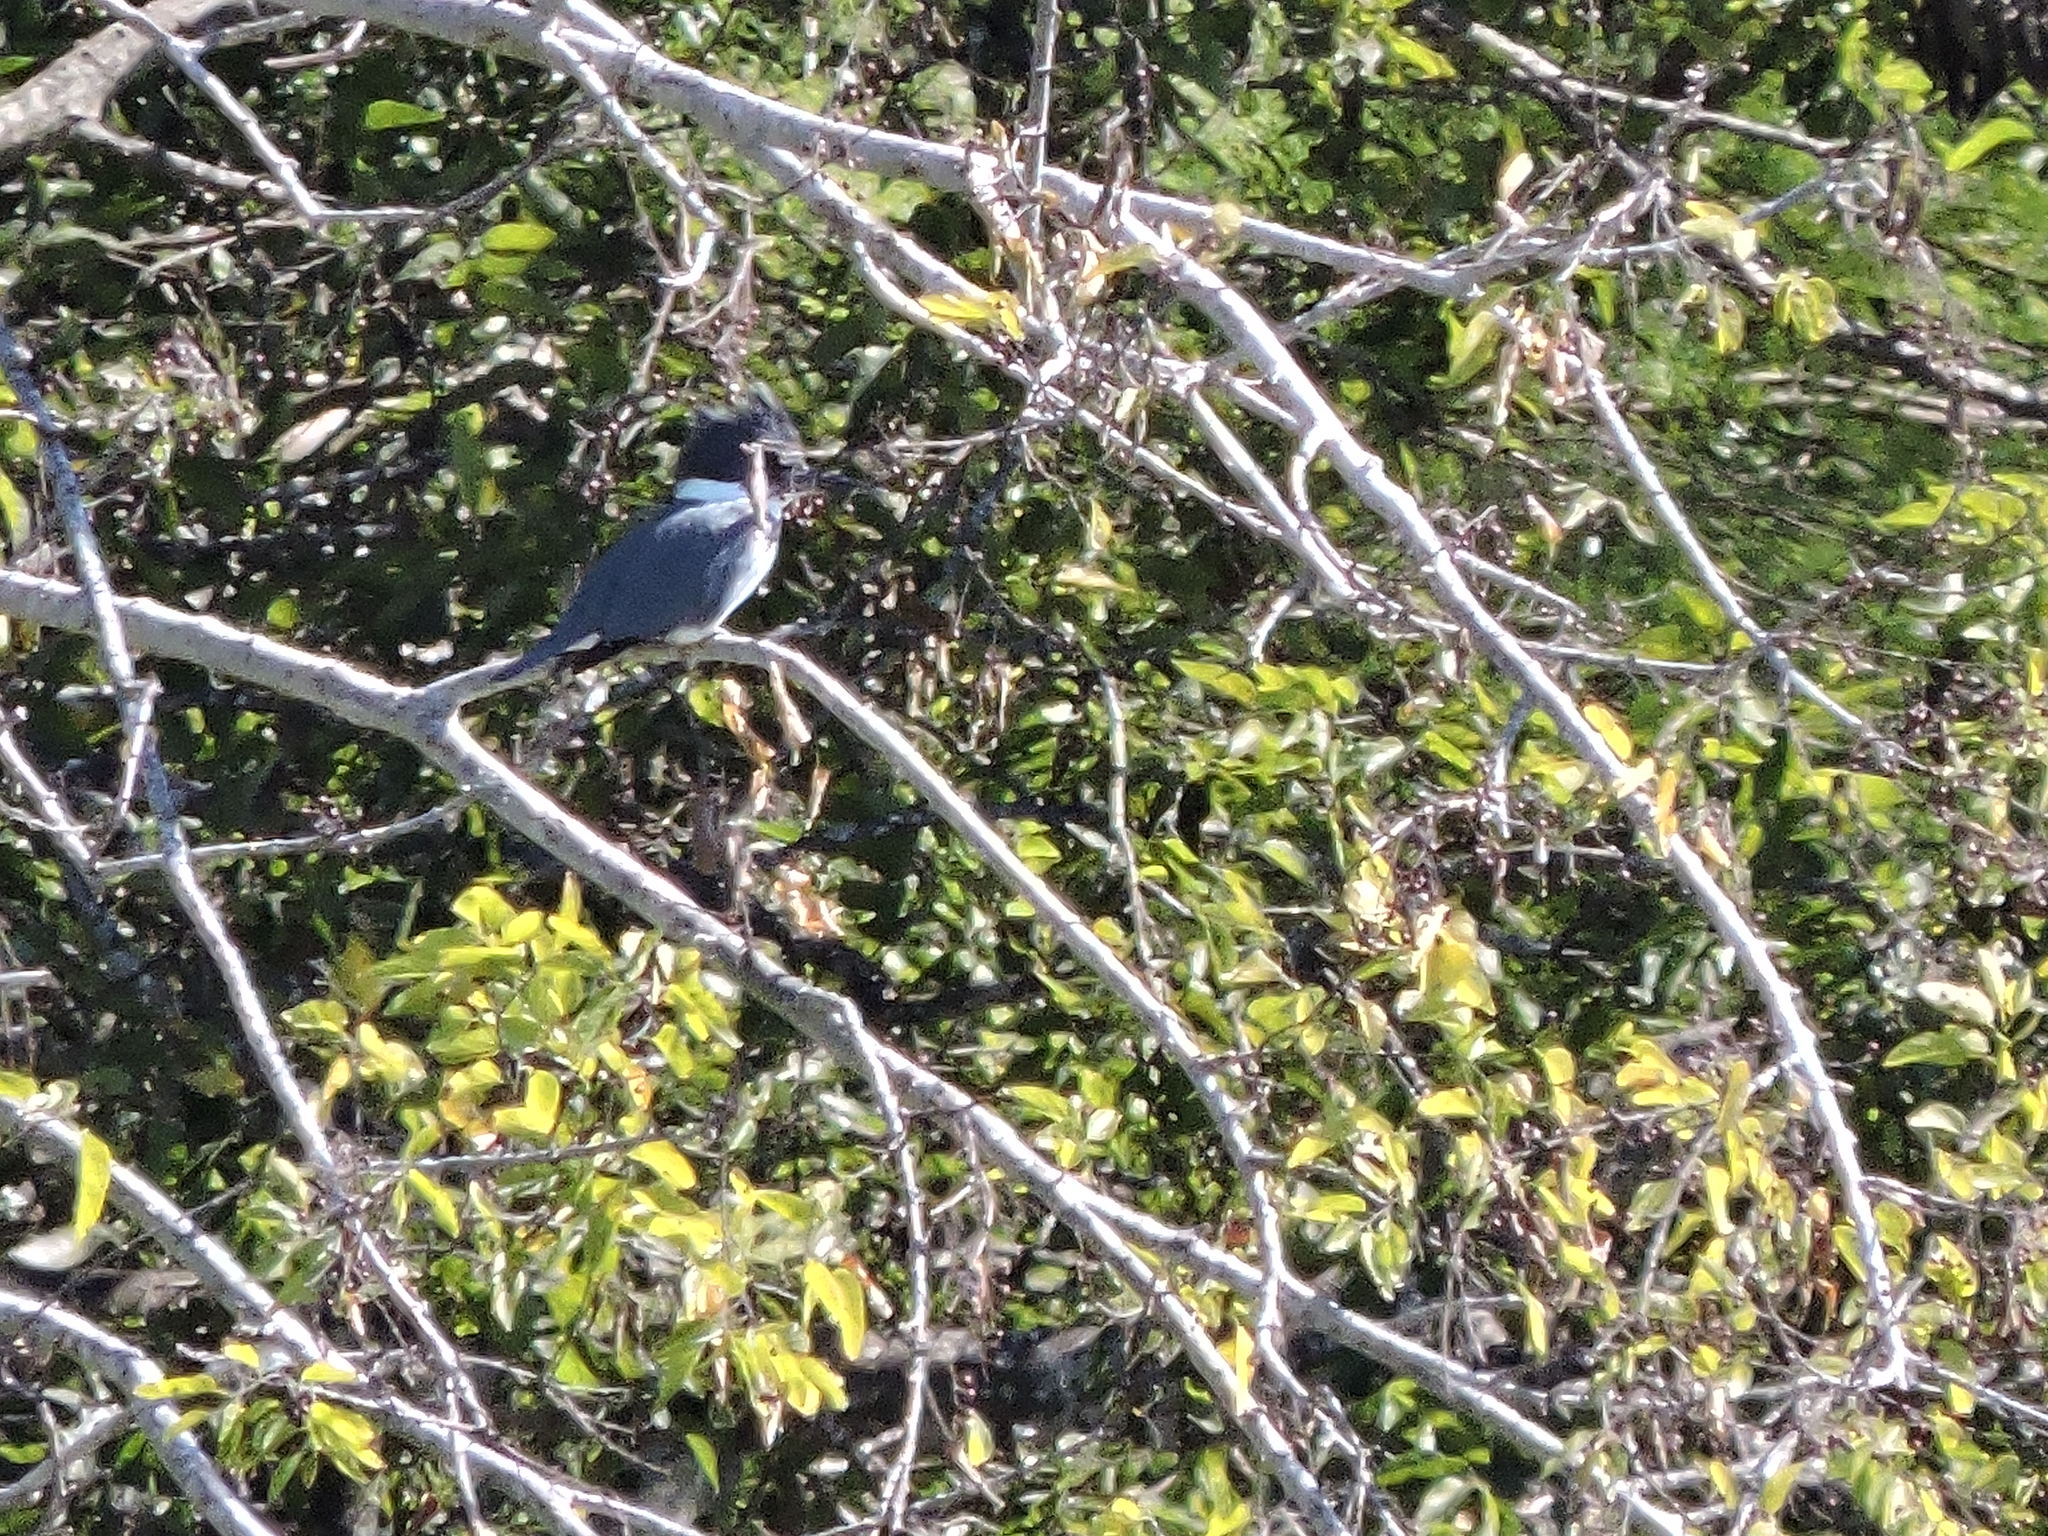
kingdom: Animalia
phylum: Chordata
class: Aves
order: Coraciiformes
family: Alcedinidae
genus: Megaceryle
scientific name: Megaceryle alcyon
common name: Belted kingfisher
